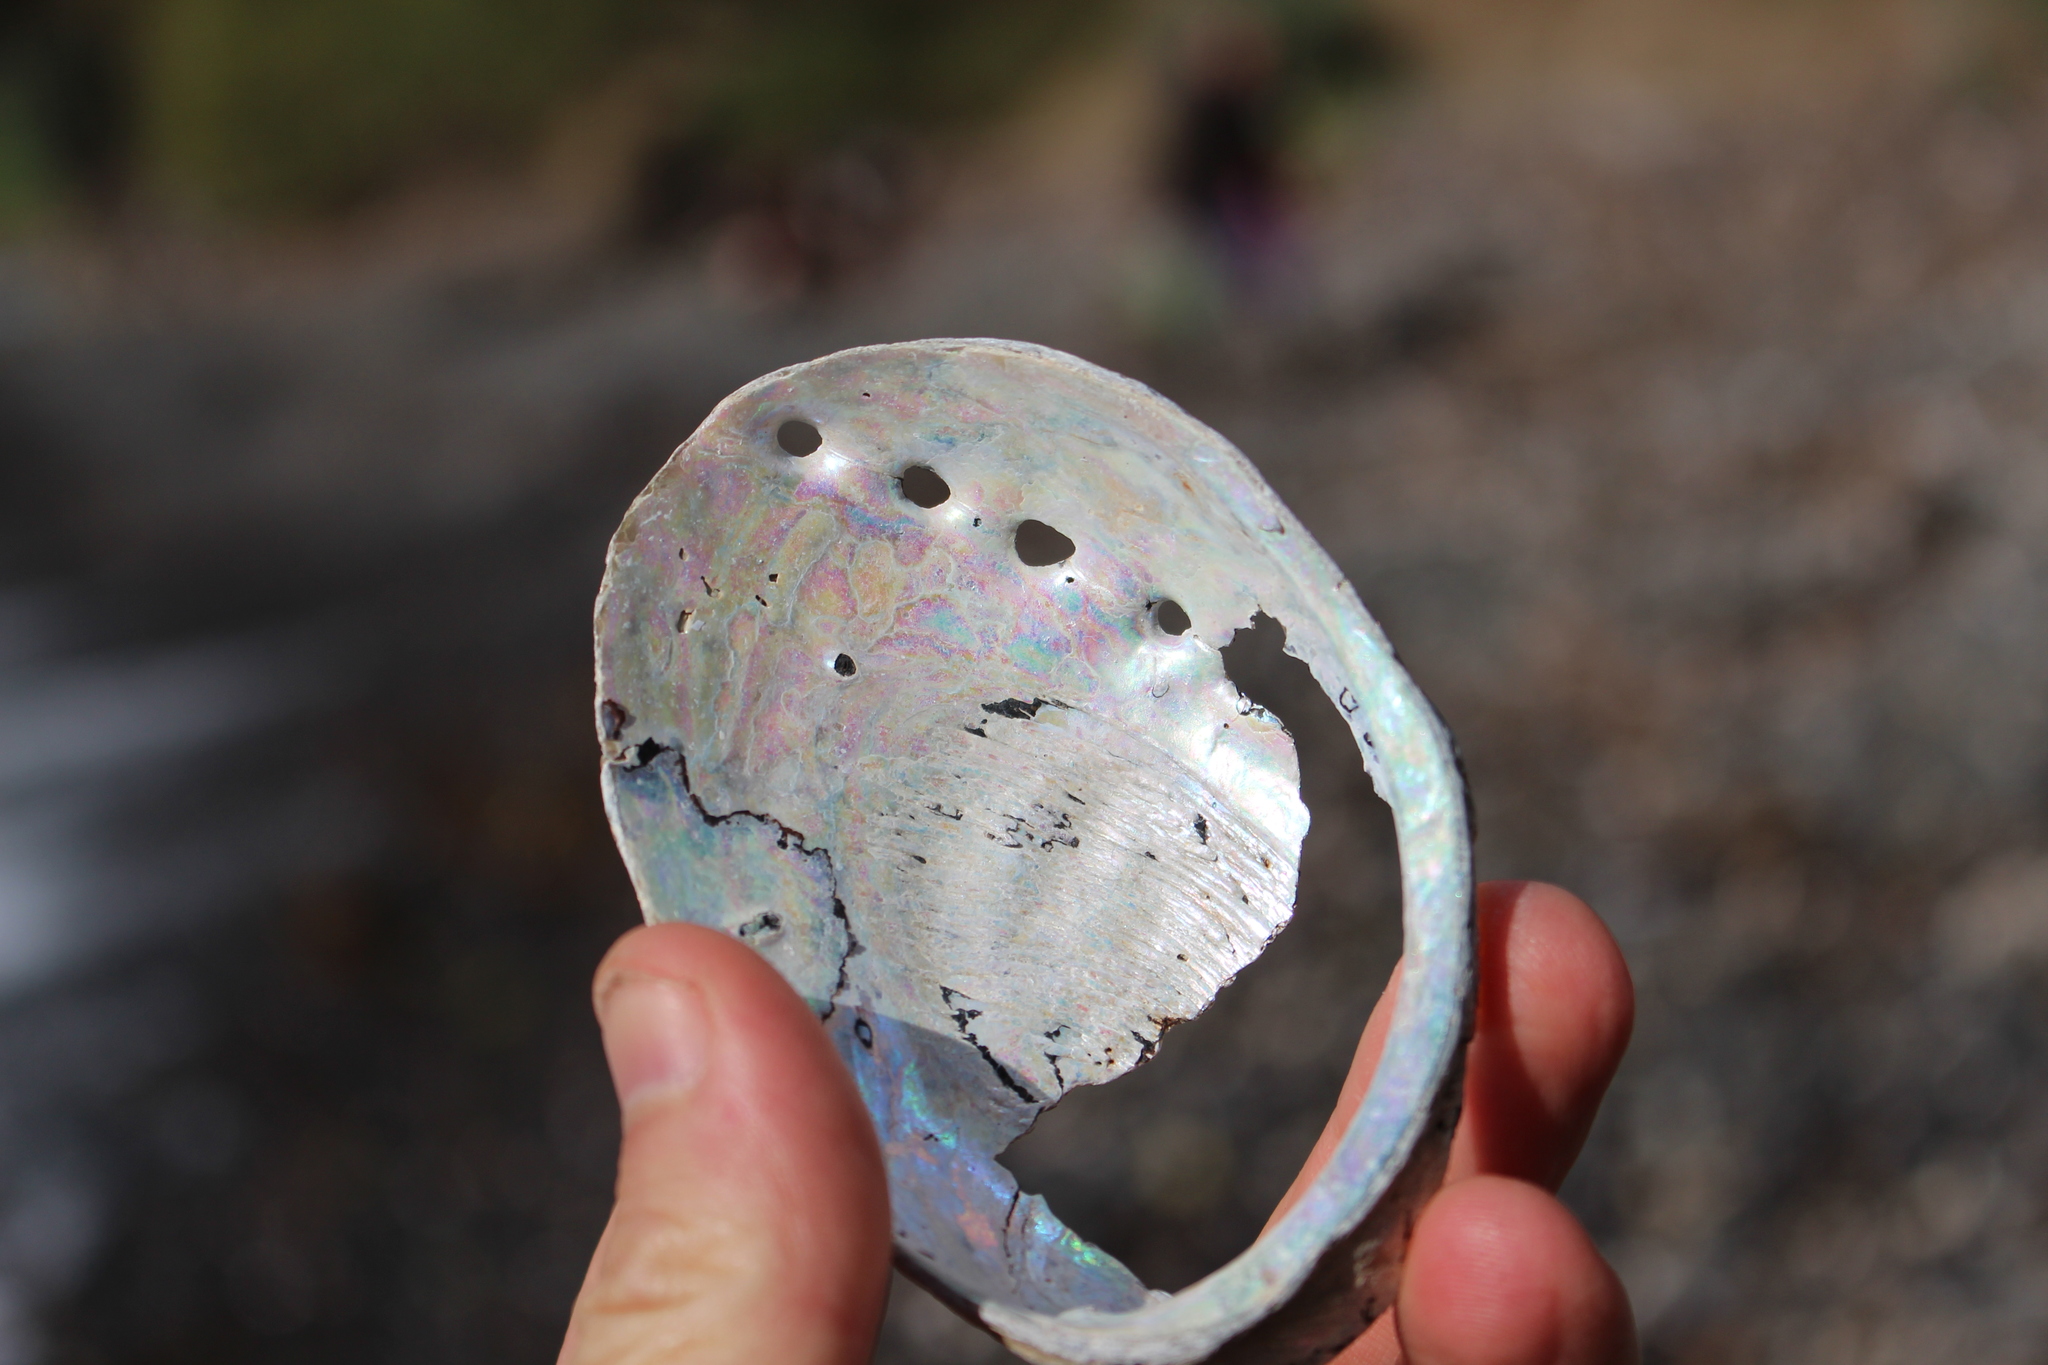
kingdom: Animalia
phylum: Mollusca
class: Gastropoda
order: Lepetellida
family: Haliotidae
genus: Haliotis
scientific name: Haliotis iris
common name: Abalone
